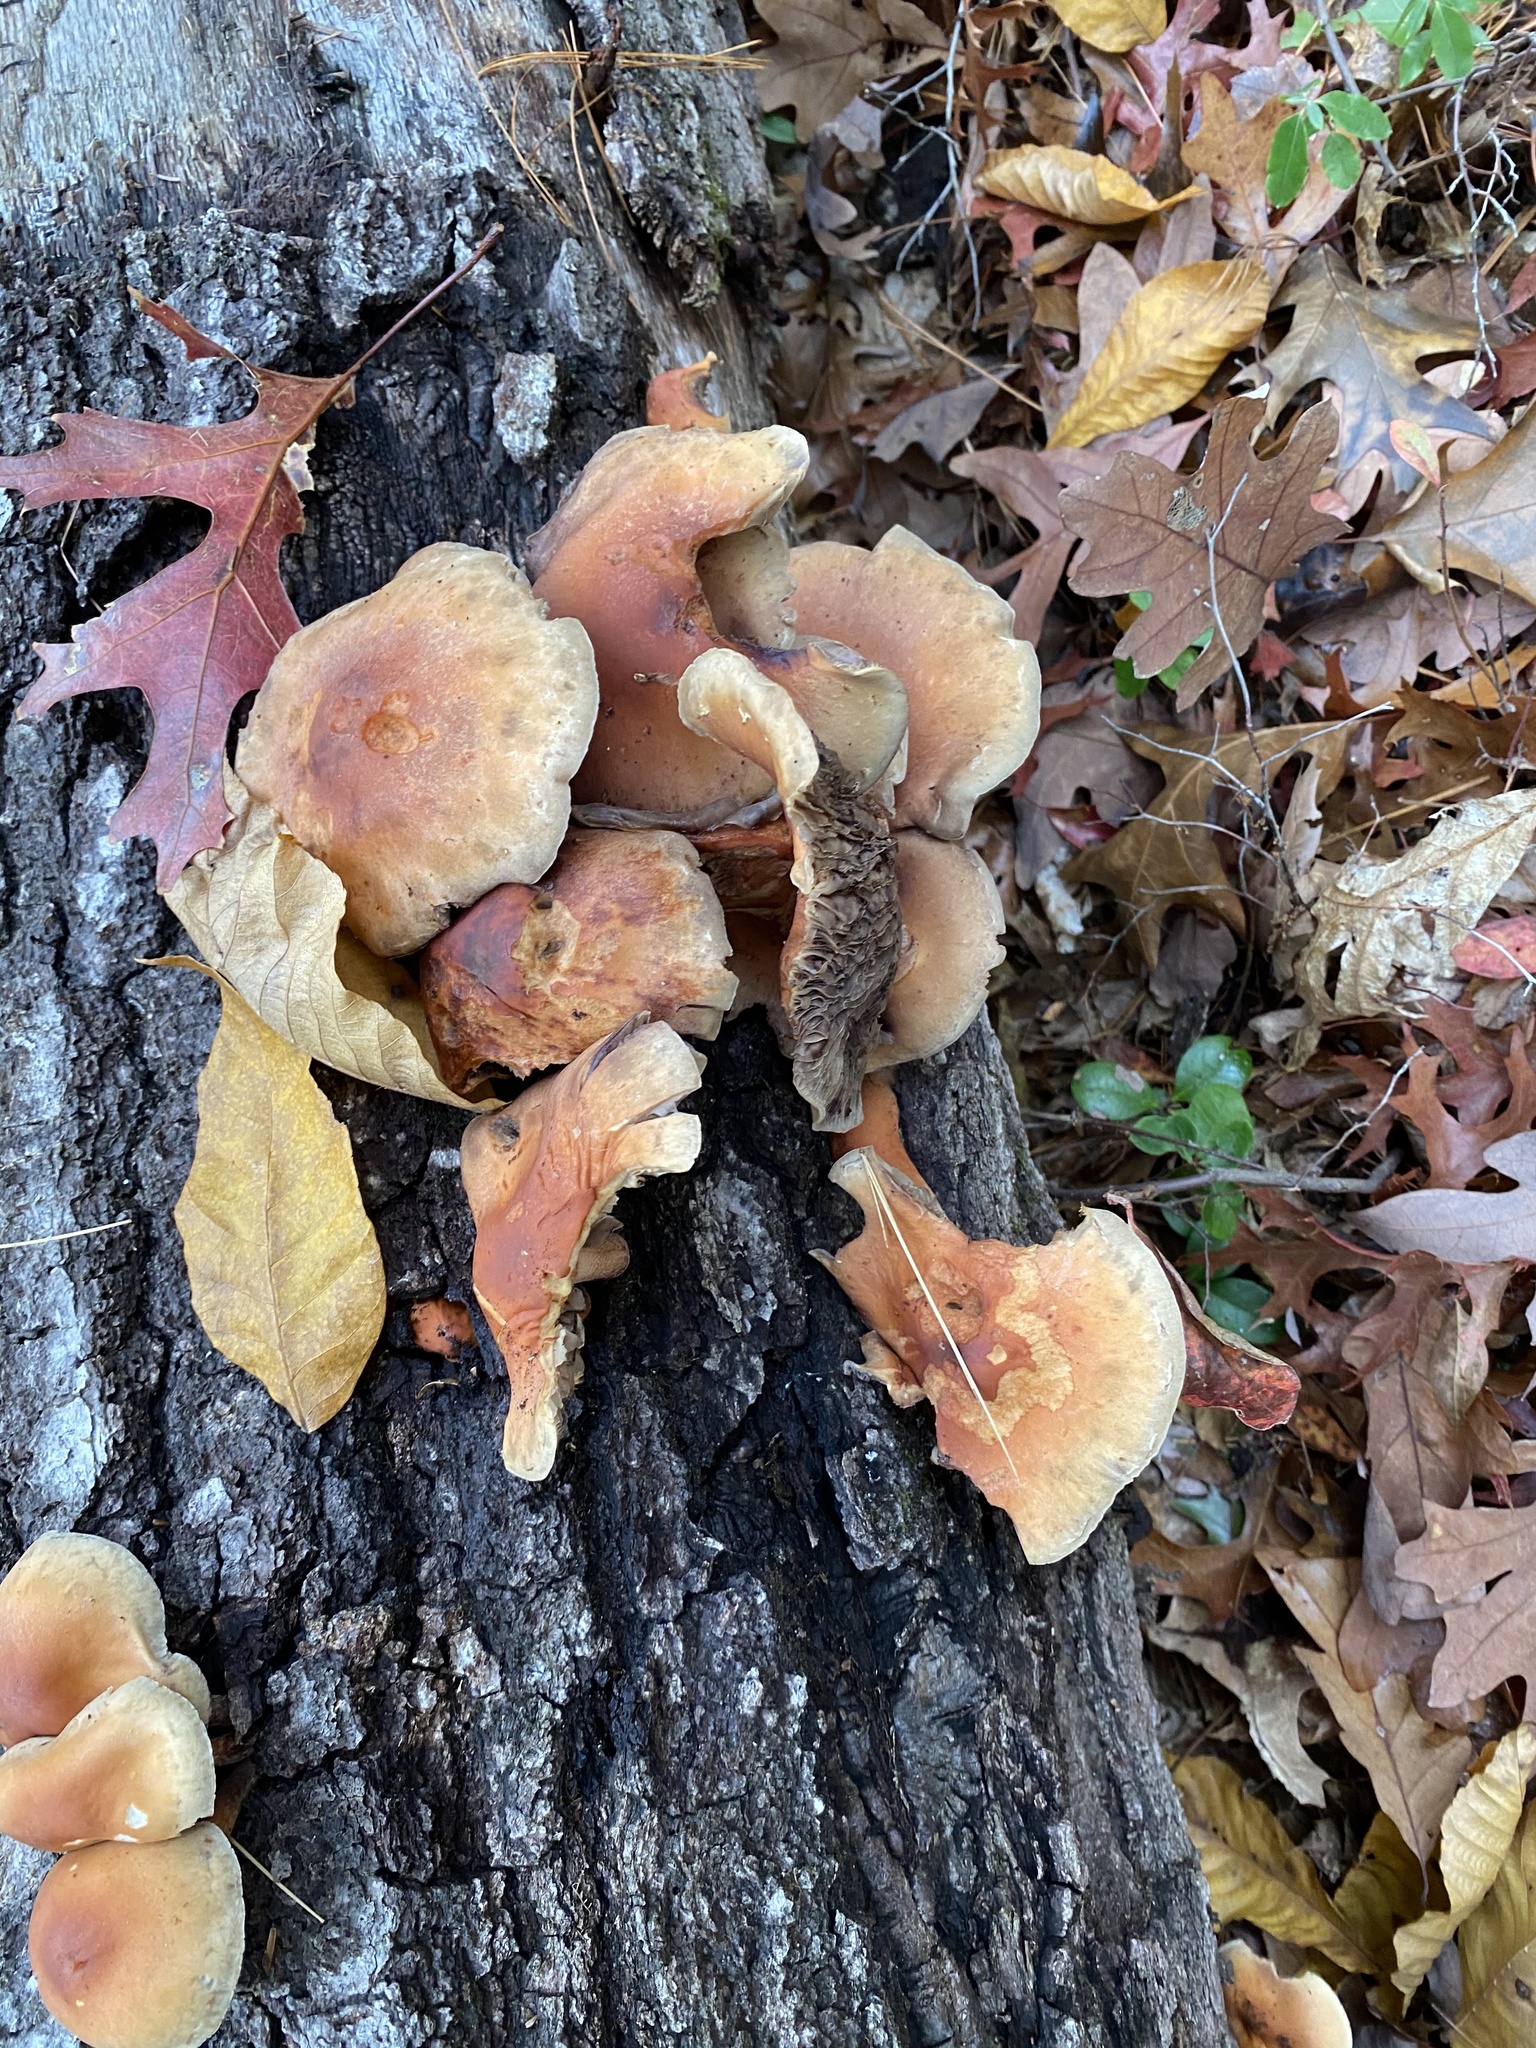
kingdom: Fungi
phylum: Basidiomycota
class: Agaricomycetes
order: Agaricales
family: Strophariaceae
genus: Hypholoma
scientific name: Hypholoma lateritium
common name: Brick caps
